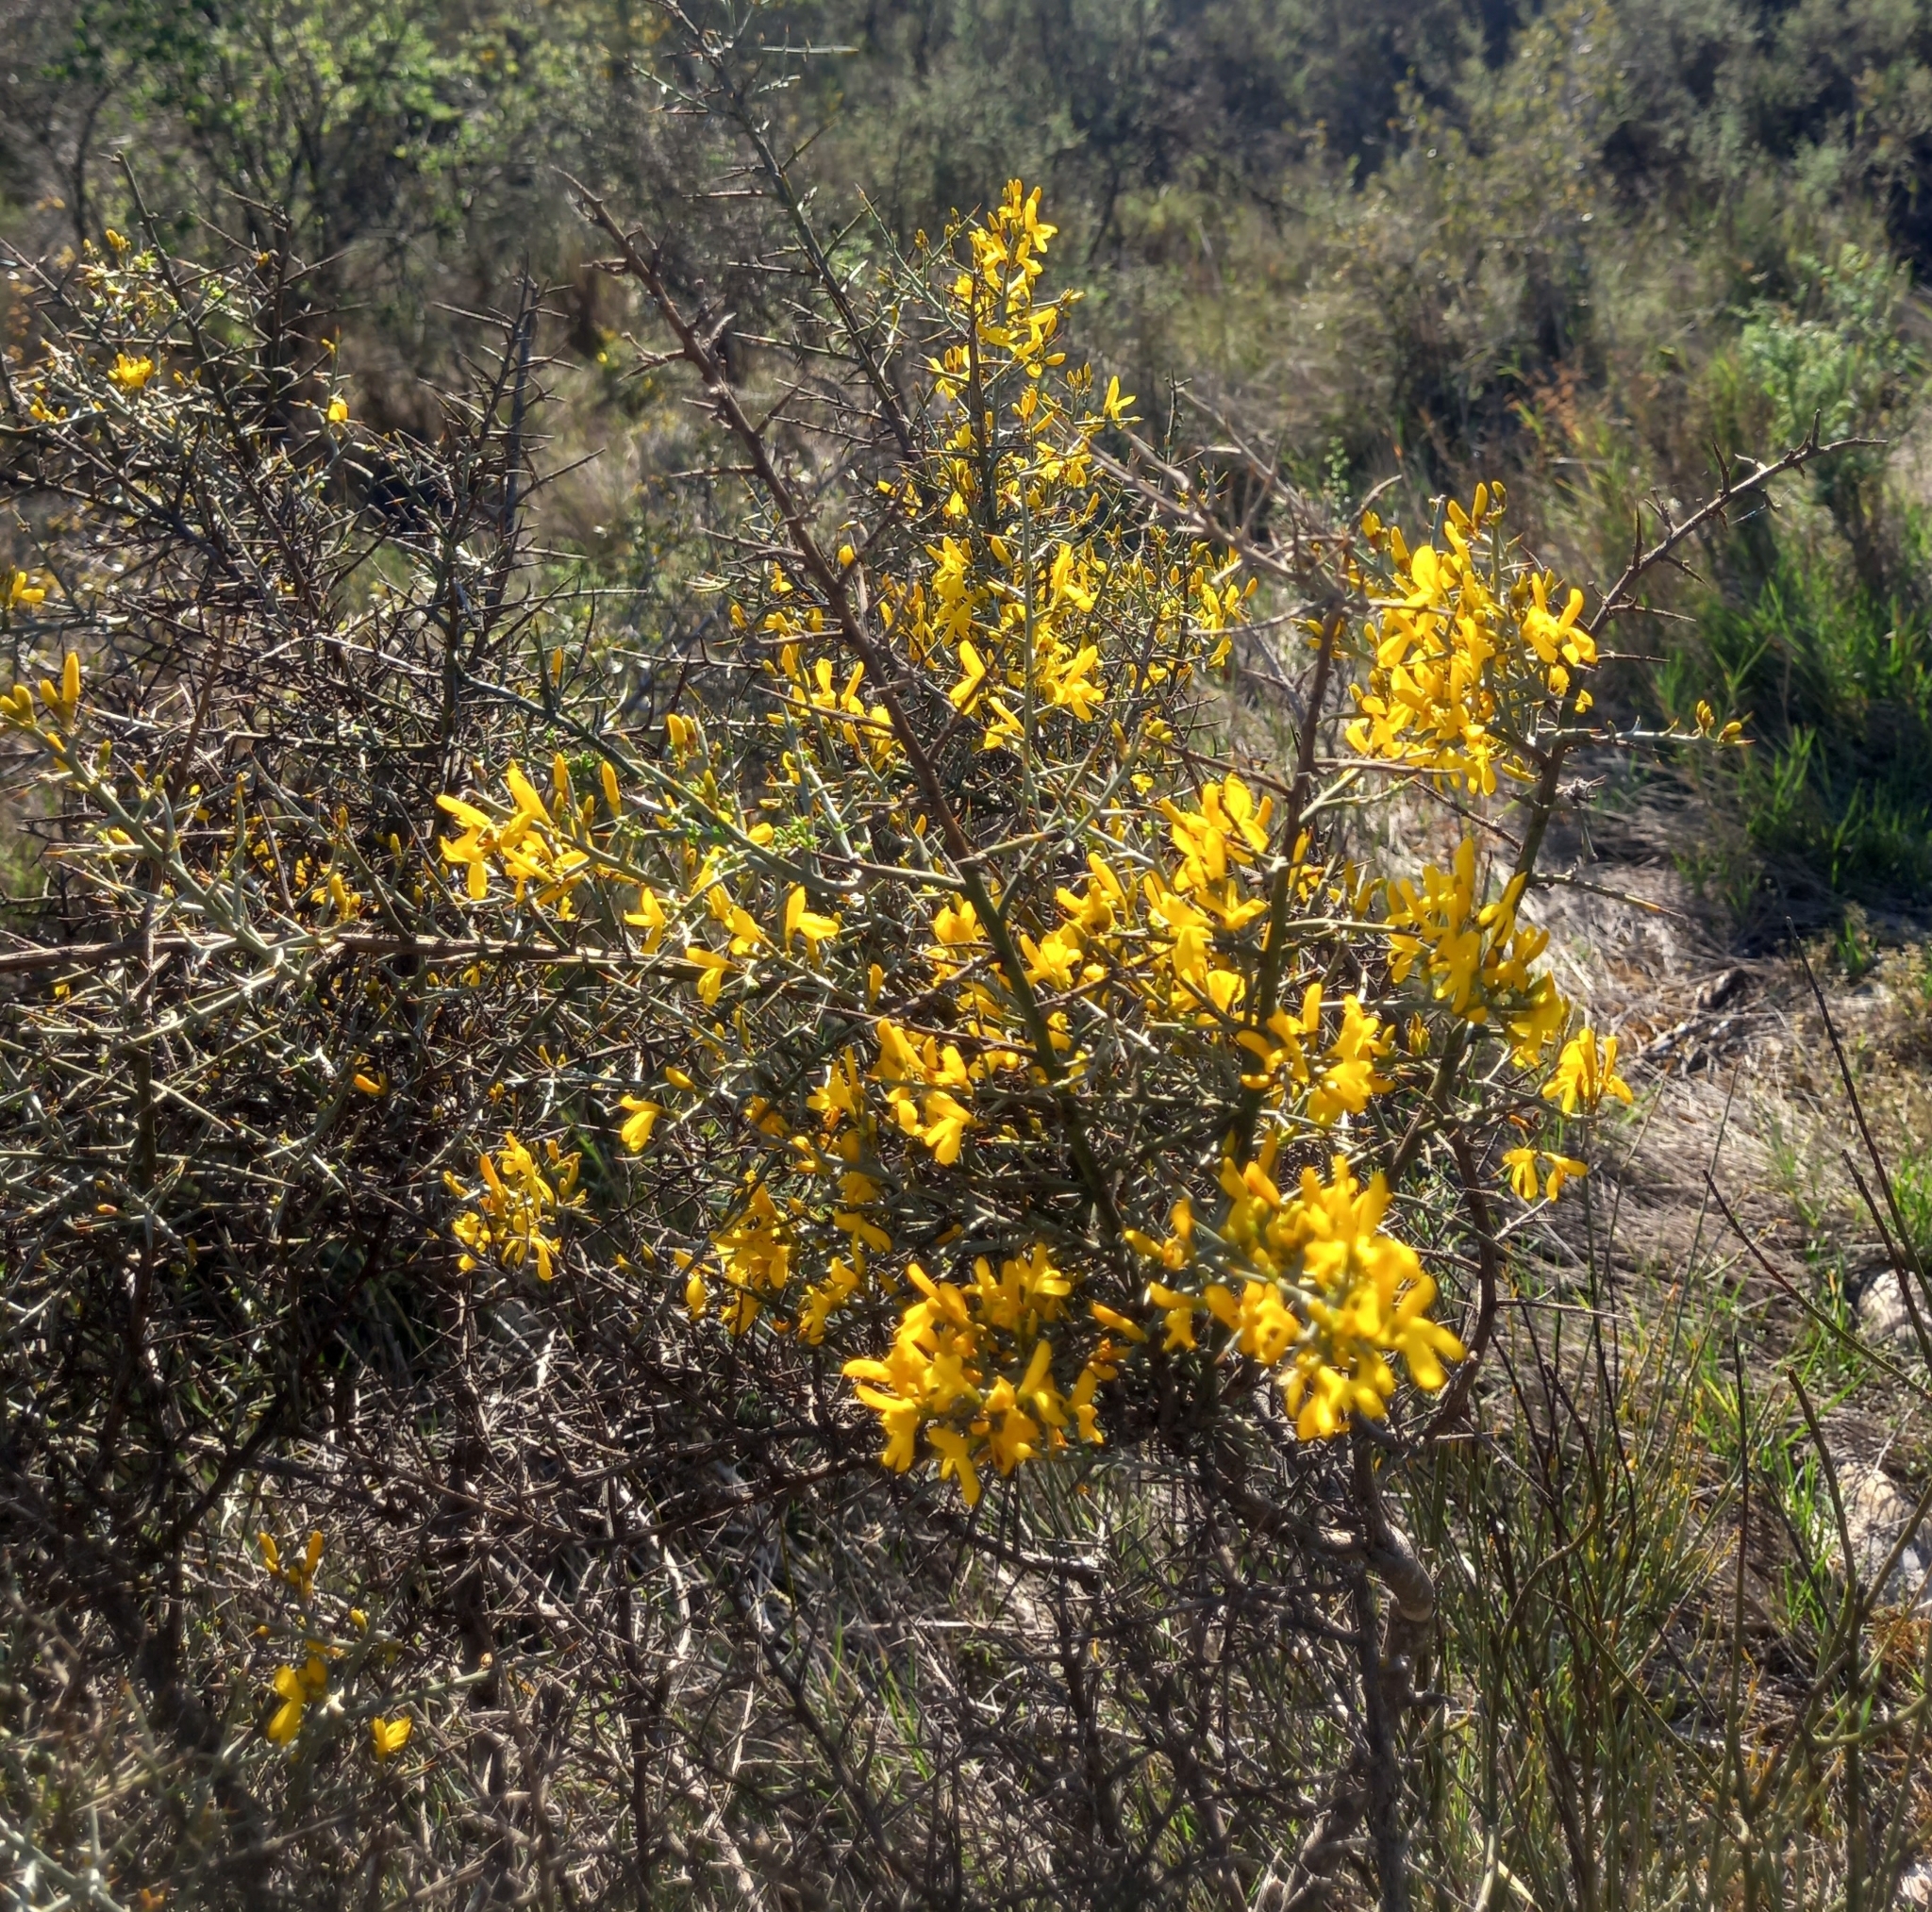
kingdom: Plantae
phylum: Tracheophyta
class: Magnoliopsida
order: Fabales
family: Fabaceae
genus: Genista
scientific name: Genista scorpius
